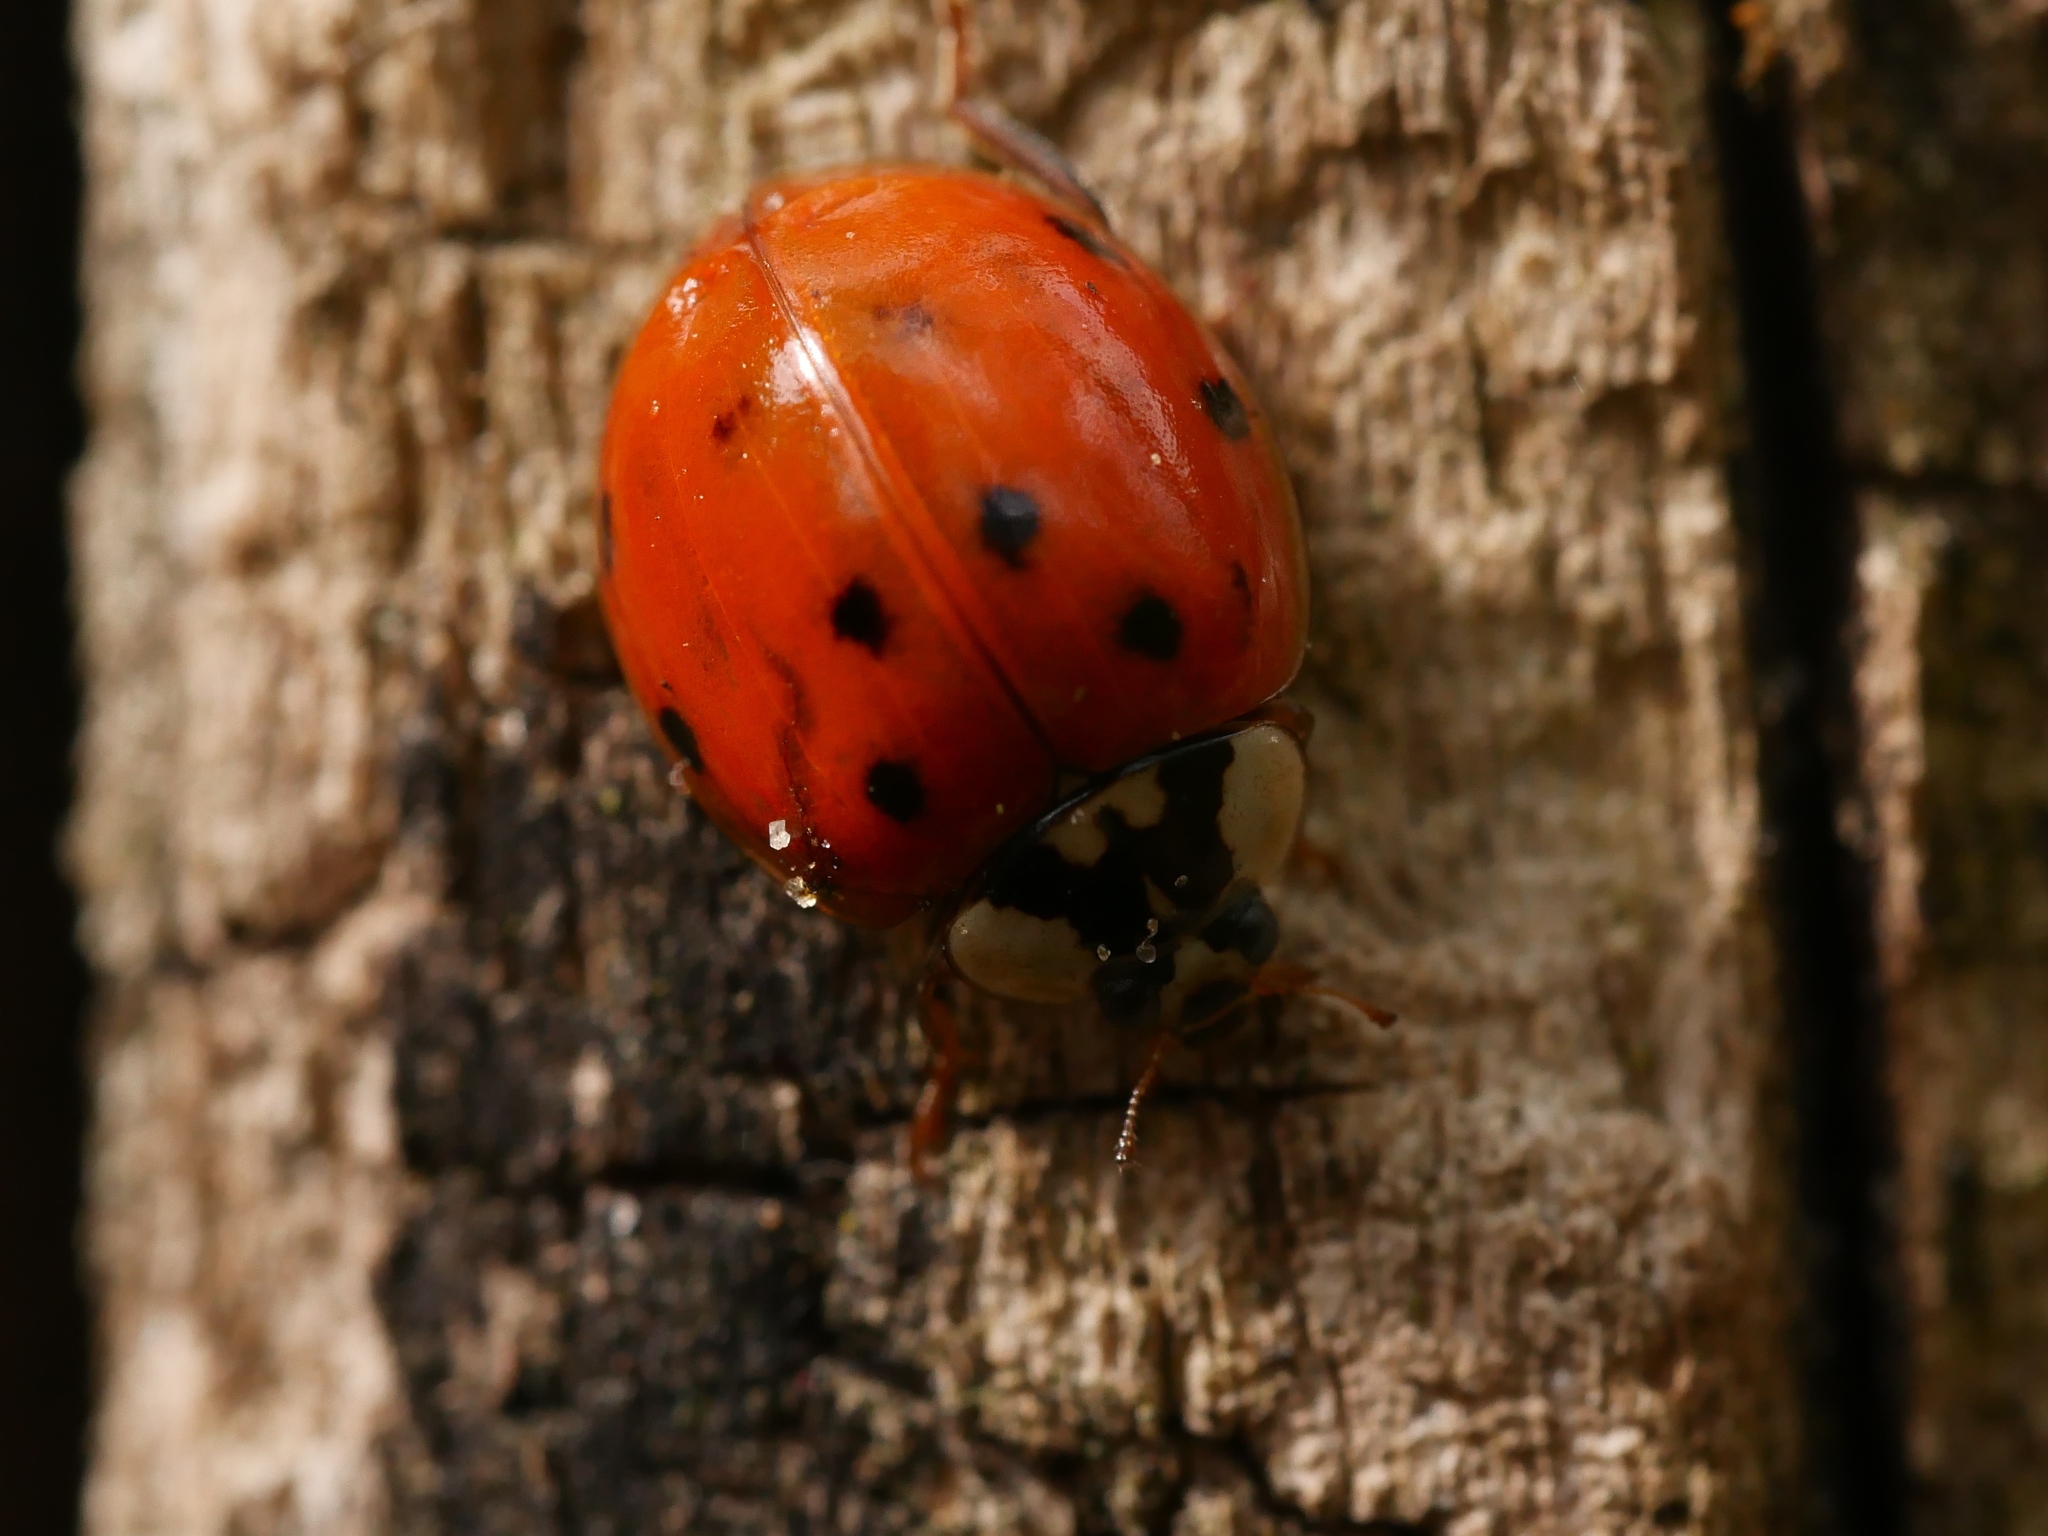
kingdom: Animalia
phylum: Arthropoda
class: Insecta
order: Coleoptera
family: Coccinellidae
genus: Harmonia
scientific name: Harmonia axyridis
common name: Harlequin ladybird
